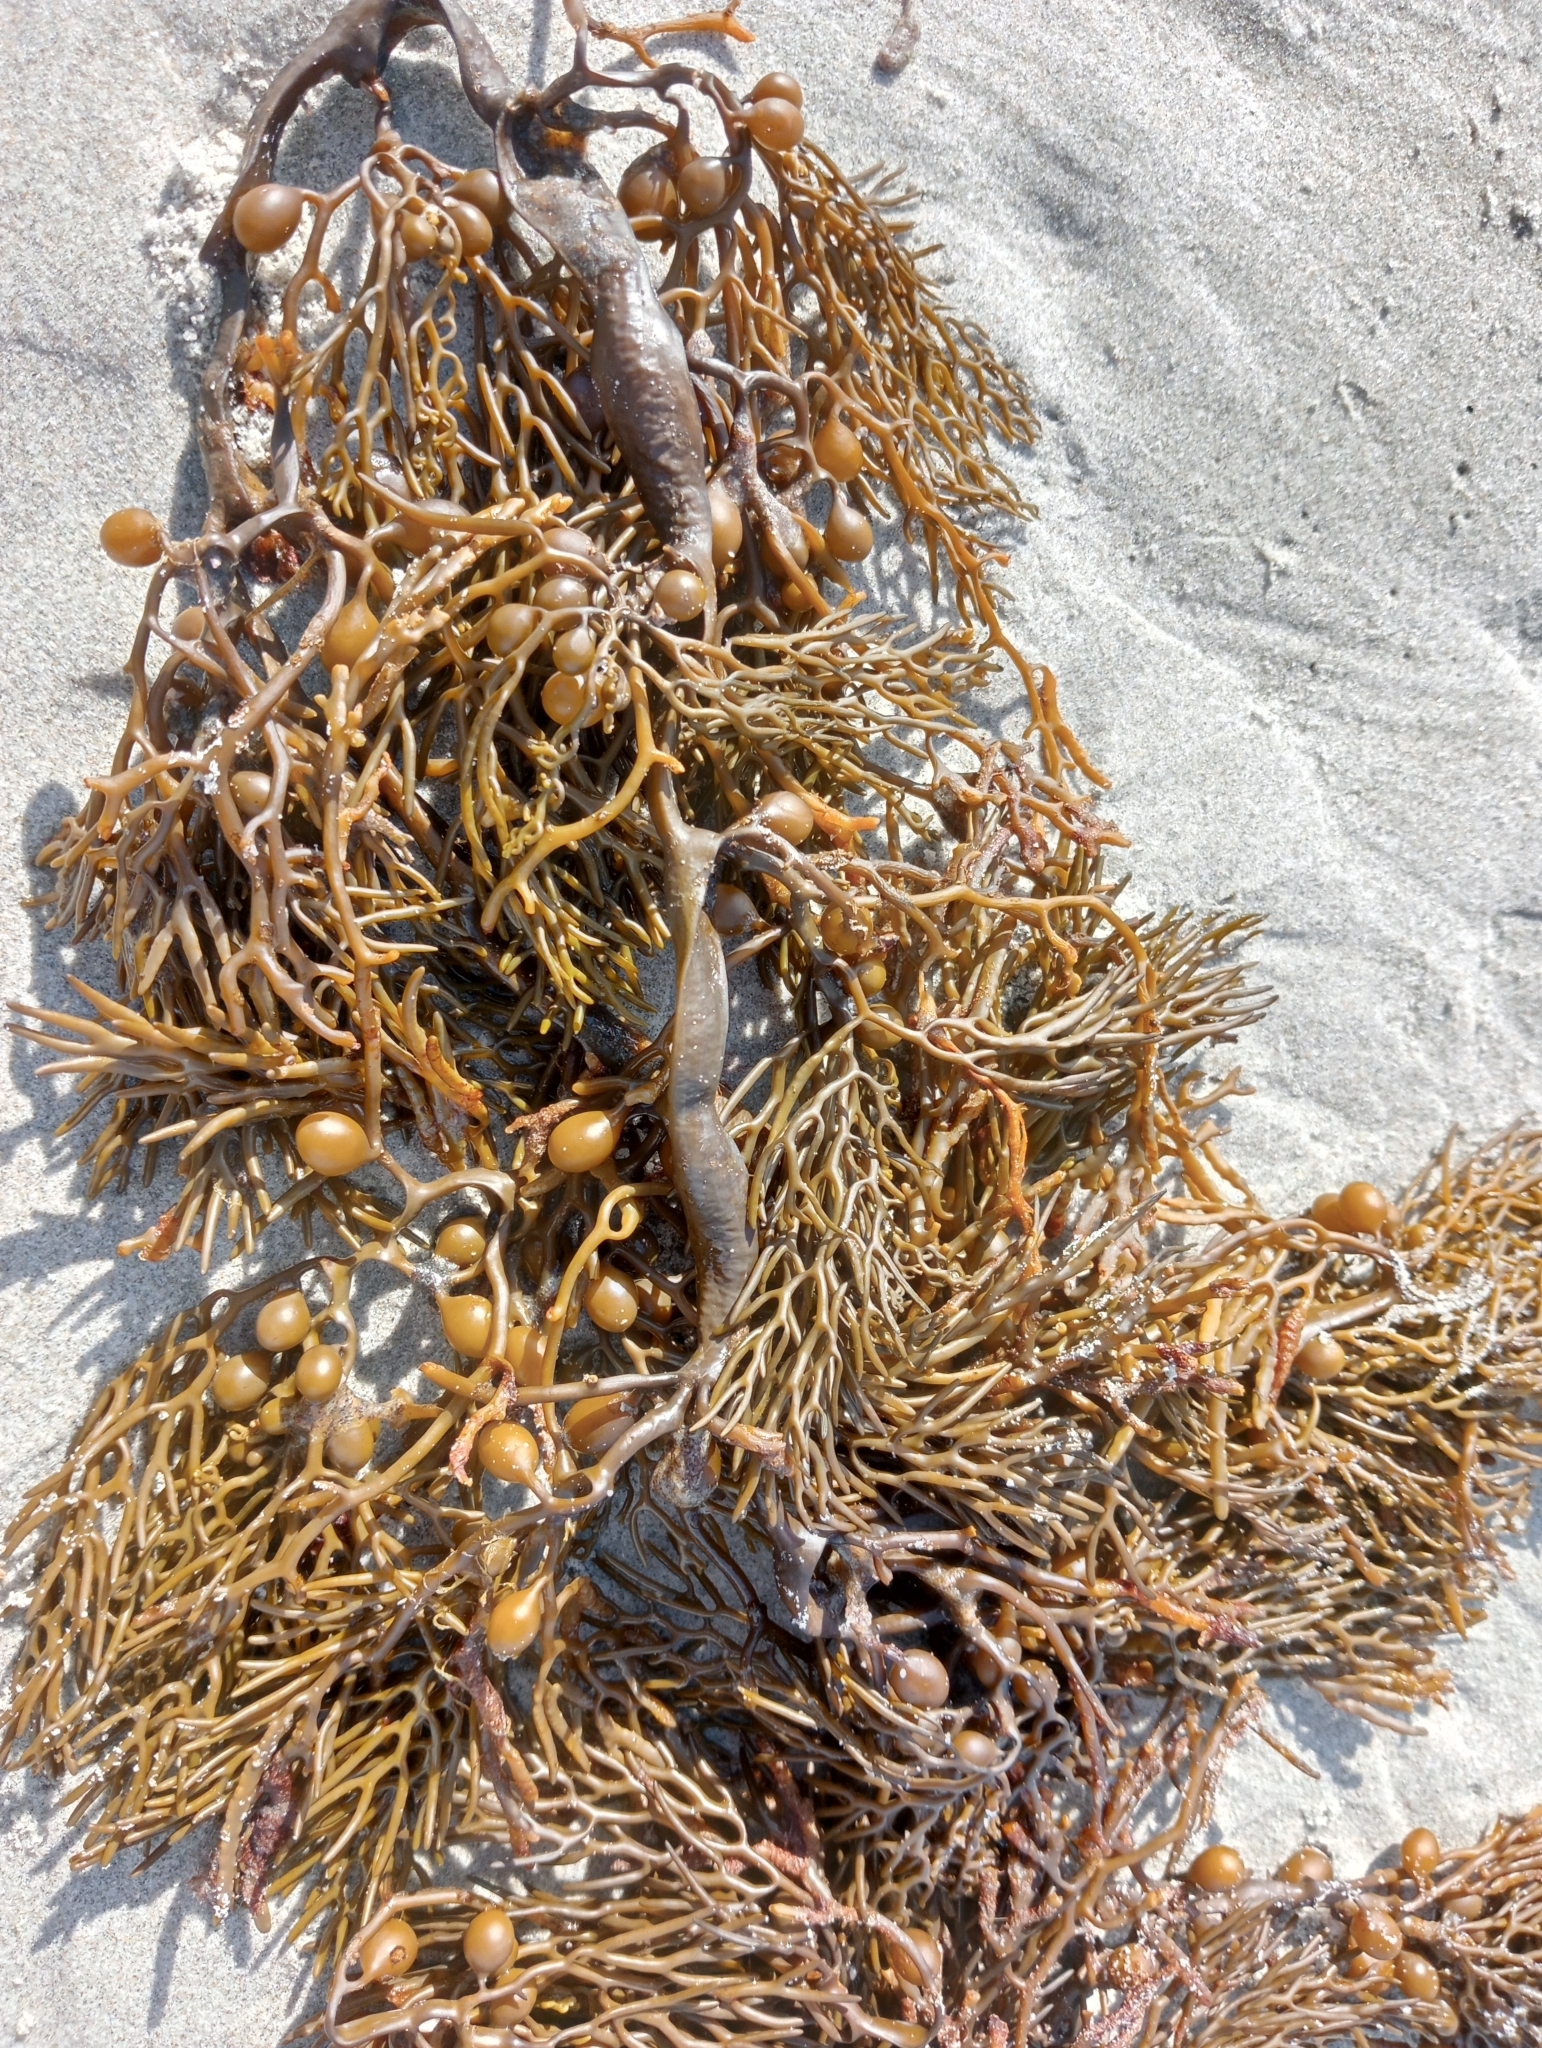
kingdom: Chromista
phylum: Ochrophyta
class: Phaeophyceae
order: Fucales
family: Sargassaceae
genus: Cystophora
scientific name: Cystophora retroflexa
